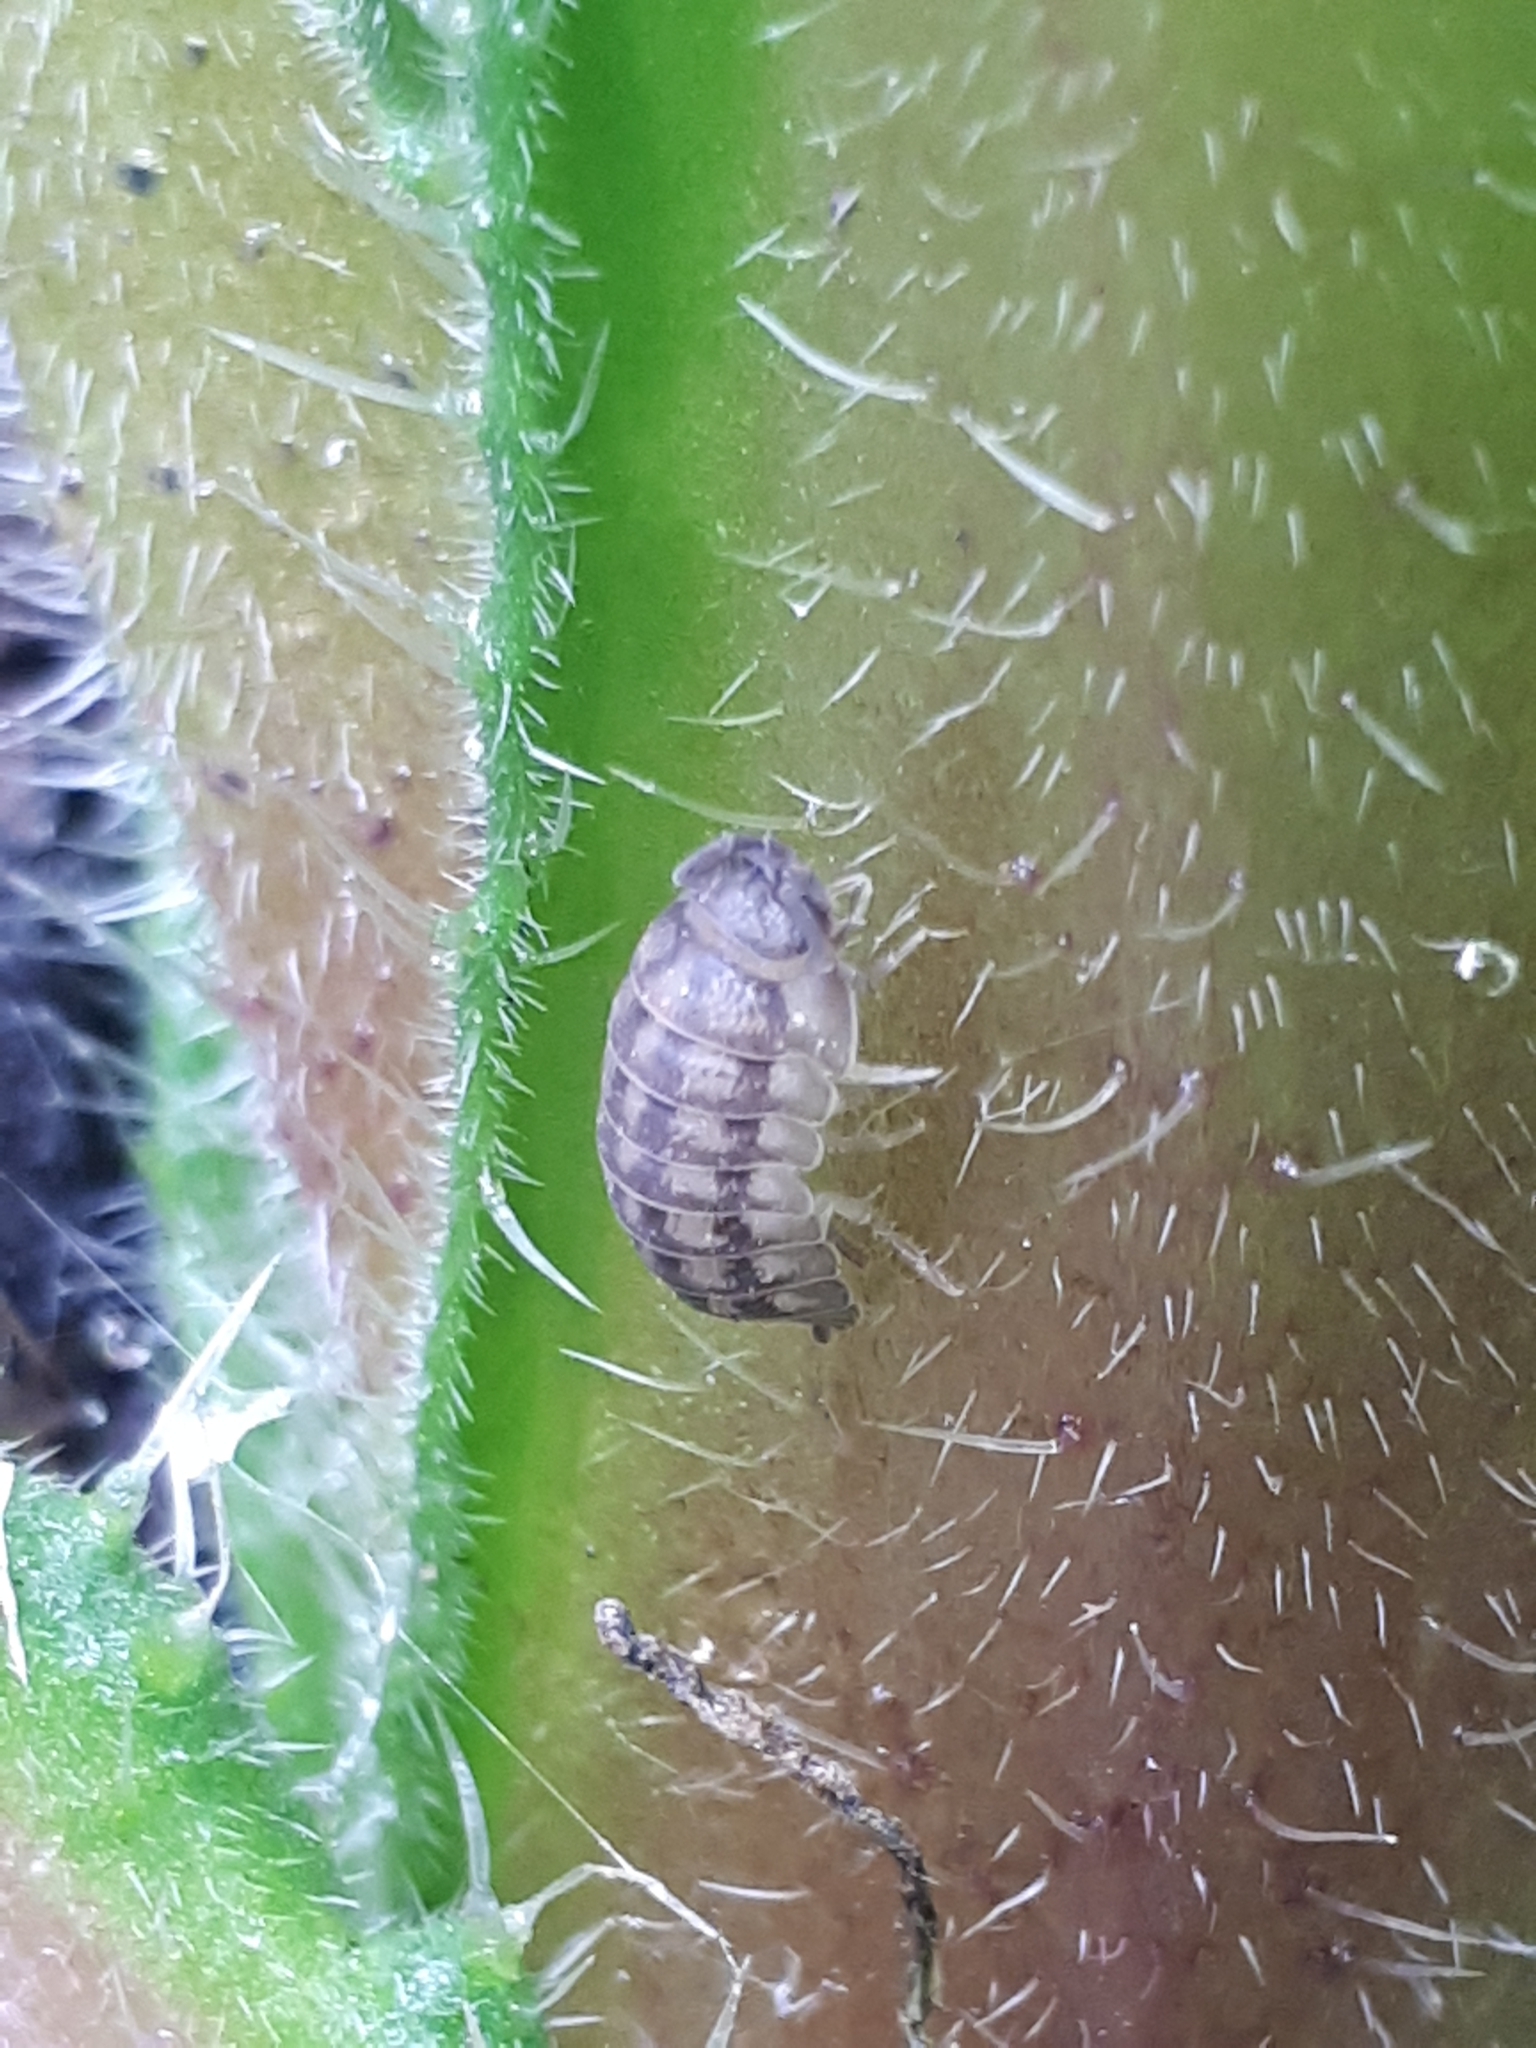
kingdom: Animalia
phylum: Arthropoda
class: Malacostraca
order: Isopoda
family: Armadillidiidae
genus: Armadillidium
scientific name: Armadillidium nasatum
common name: Isopod
